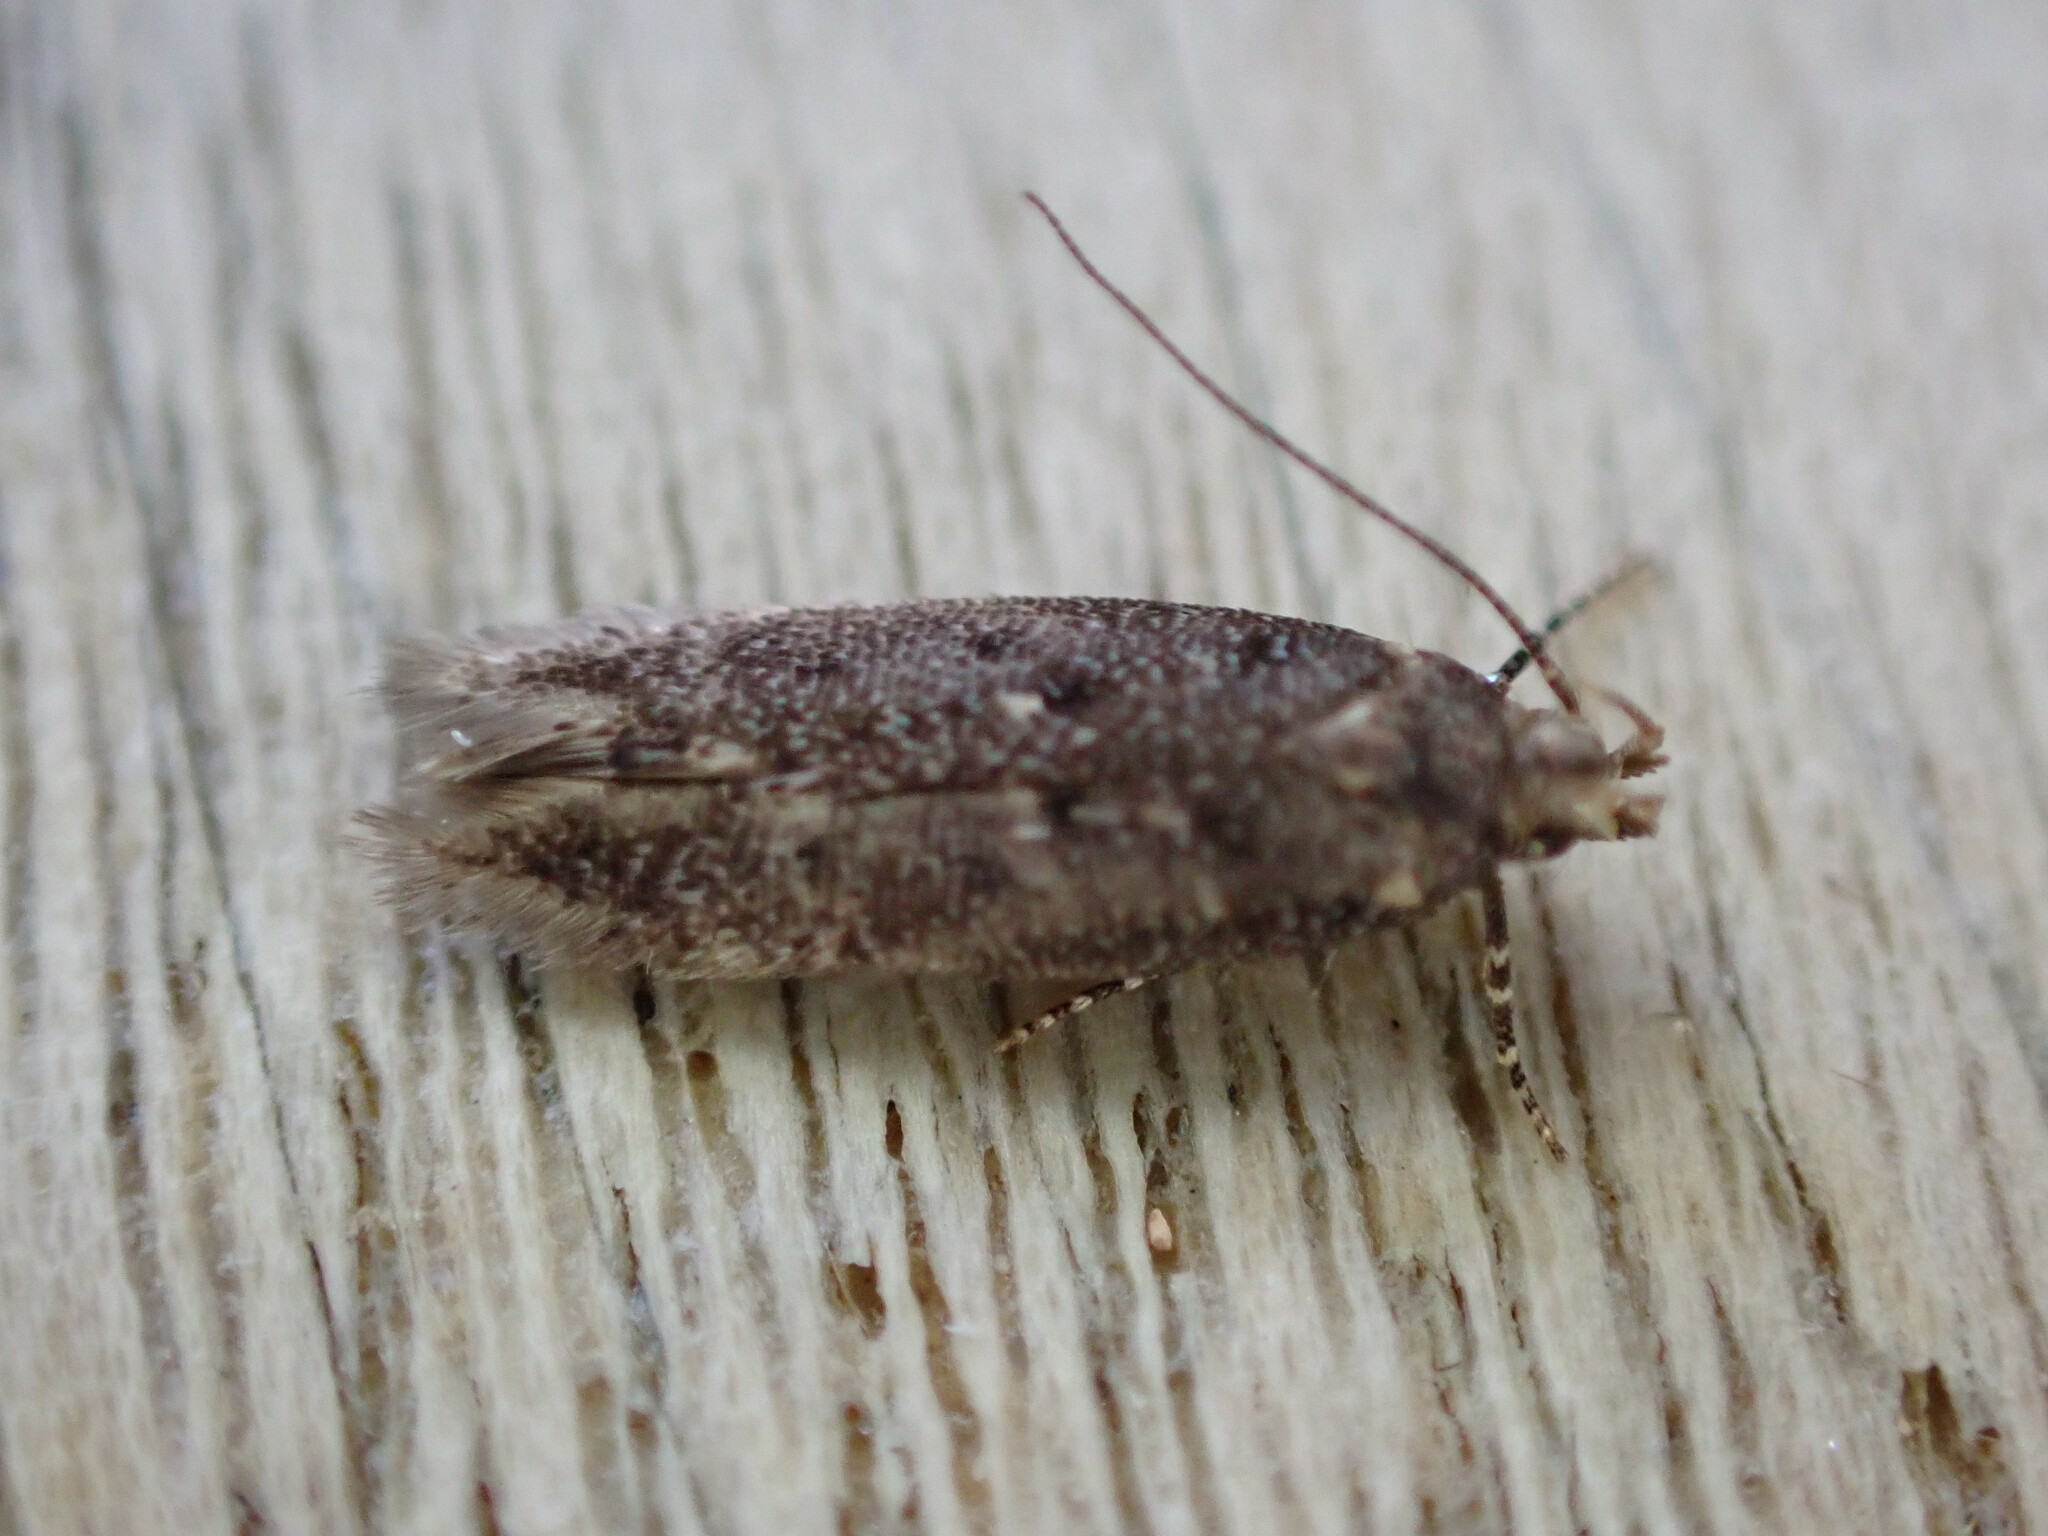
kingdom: Animalia
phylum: Arthropoda
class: Insecta
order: Lepidoptera
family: Gelechiidae
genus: Bryotropha
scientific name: Bryotropha affinis
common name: Dark groundling
